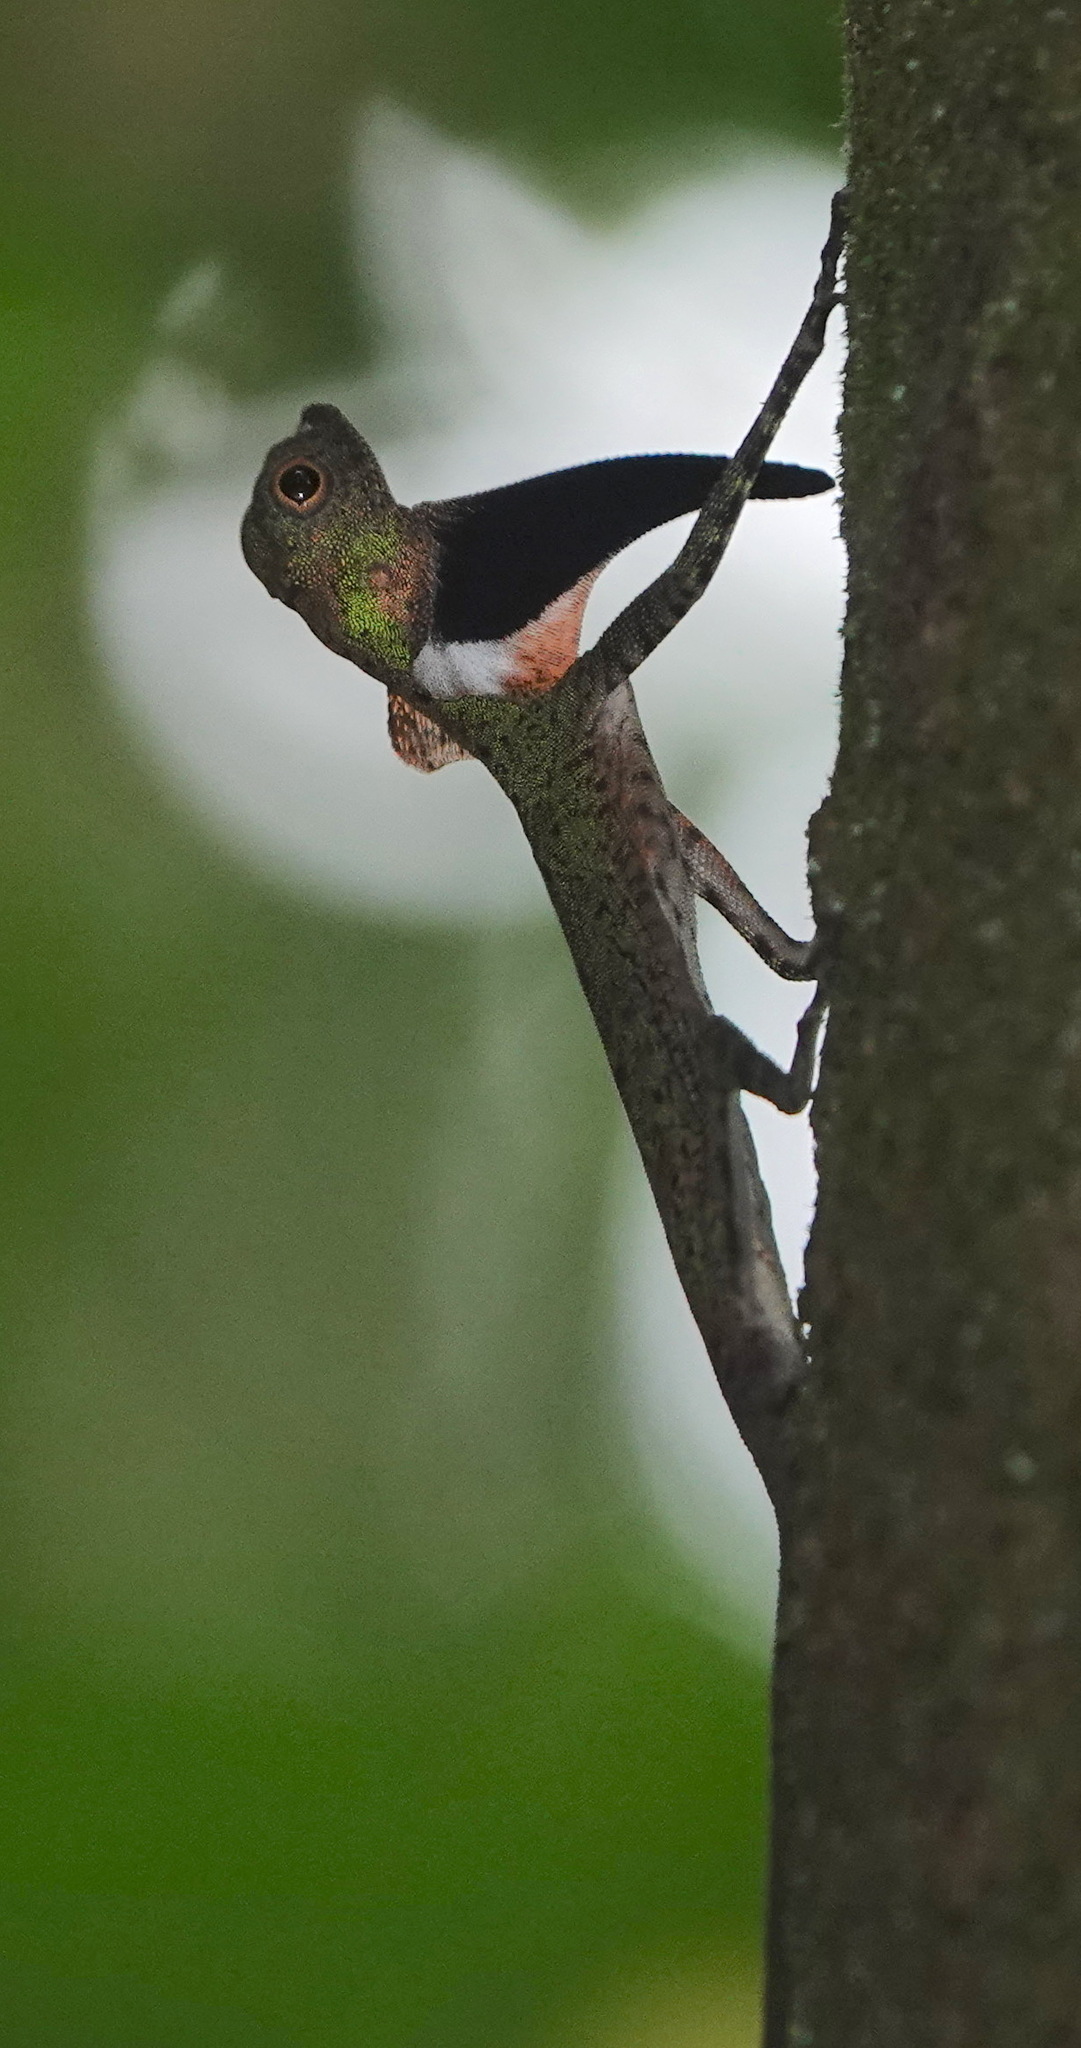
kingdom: Animalia
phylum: Chordata
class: Squamata
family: Agamidae
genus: Draco
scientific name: Draco melanopogon
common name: Black-barbed flying dragon
